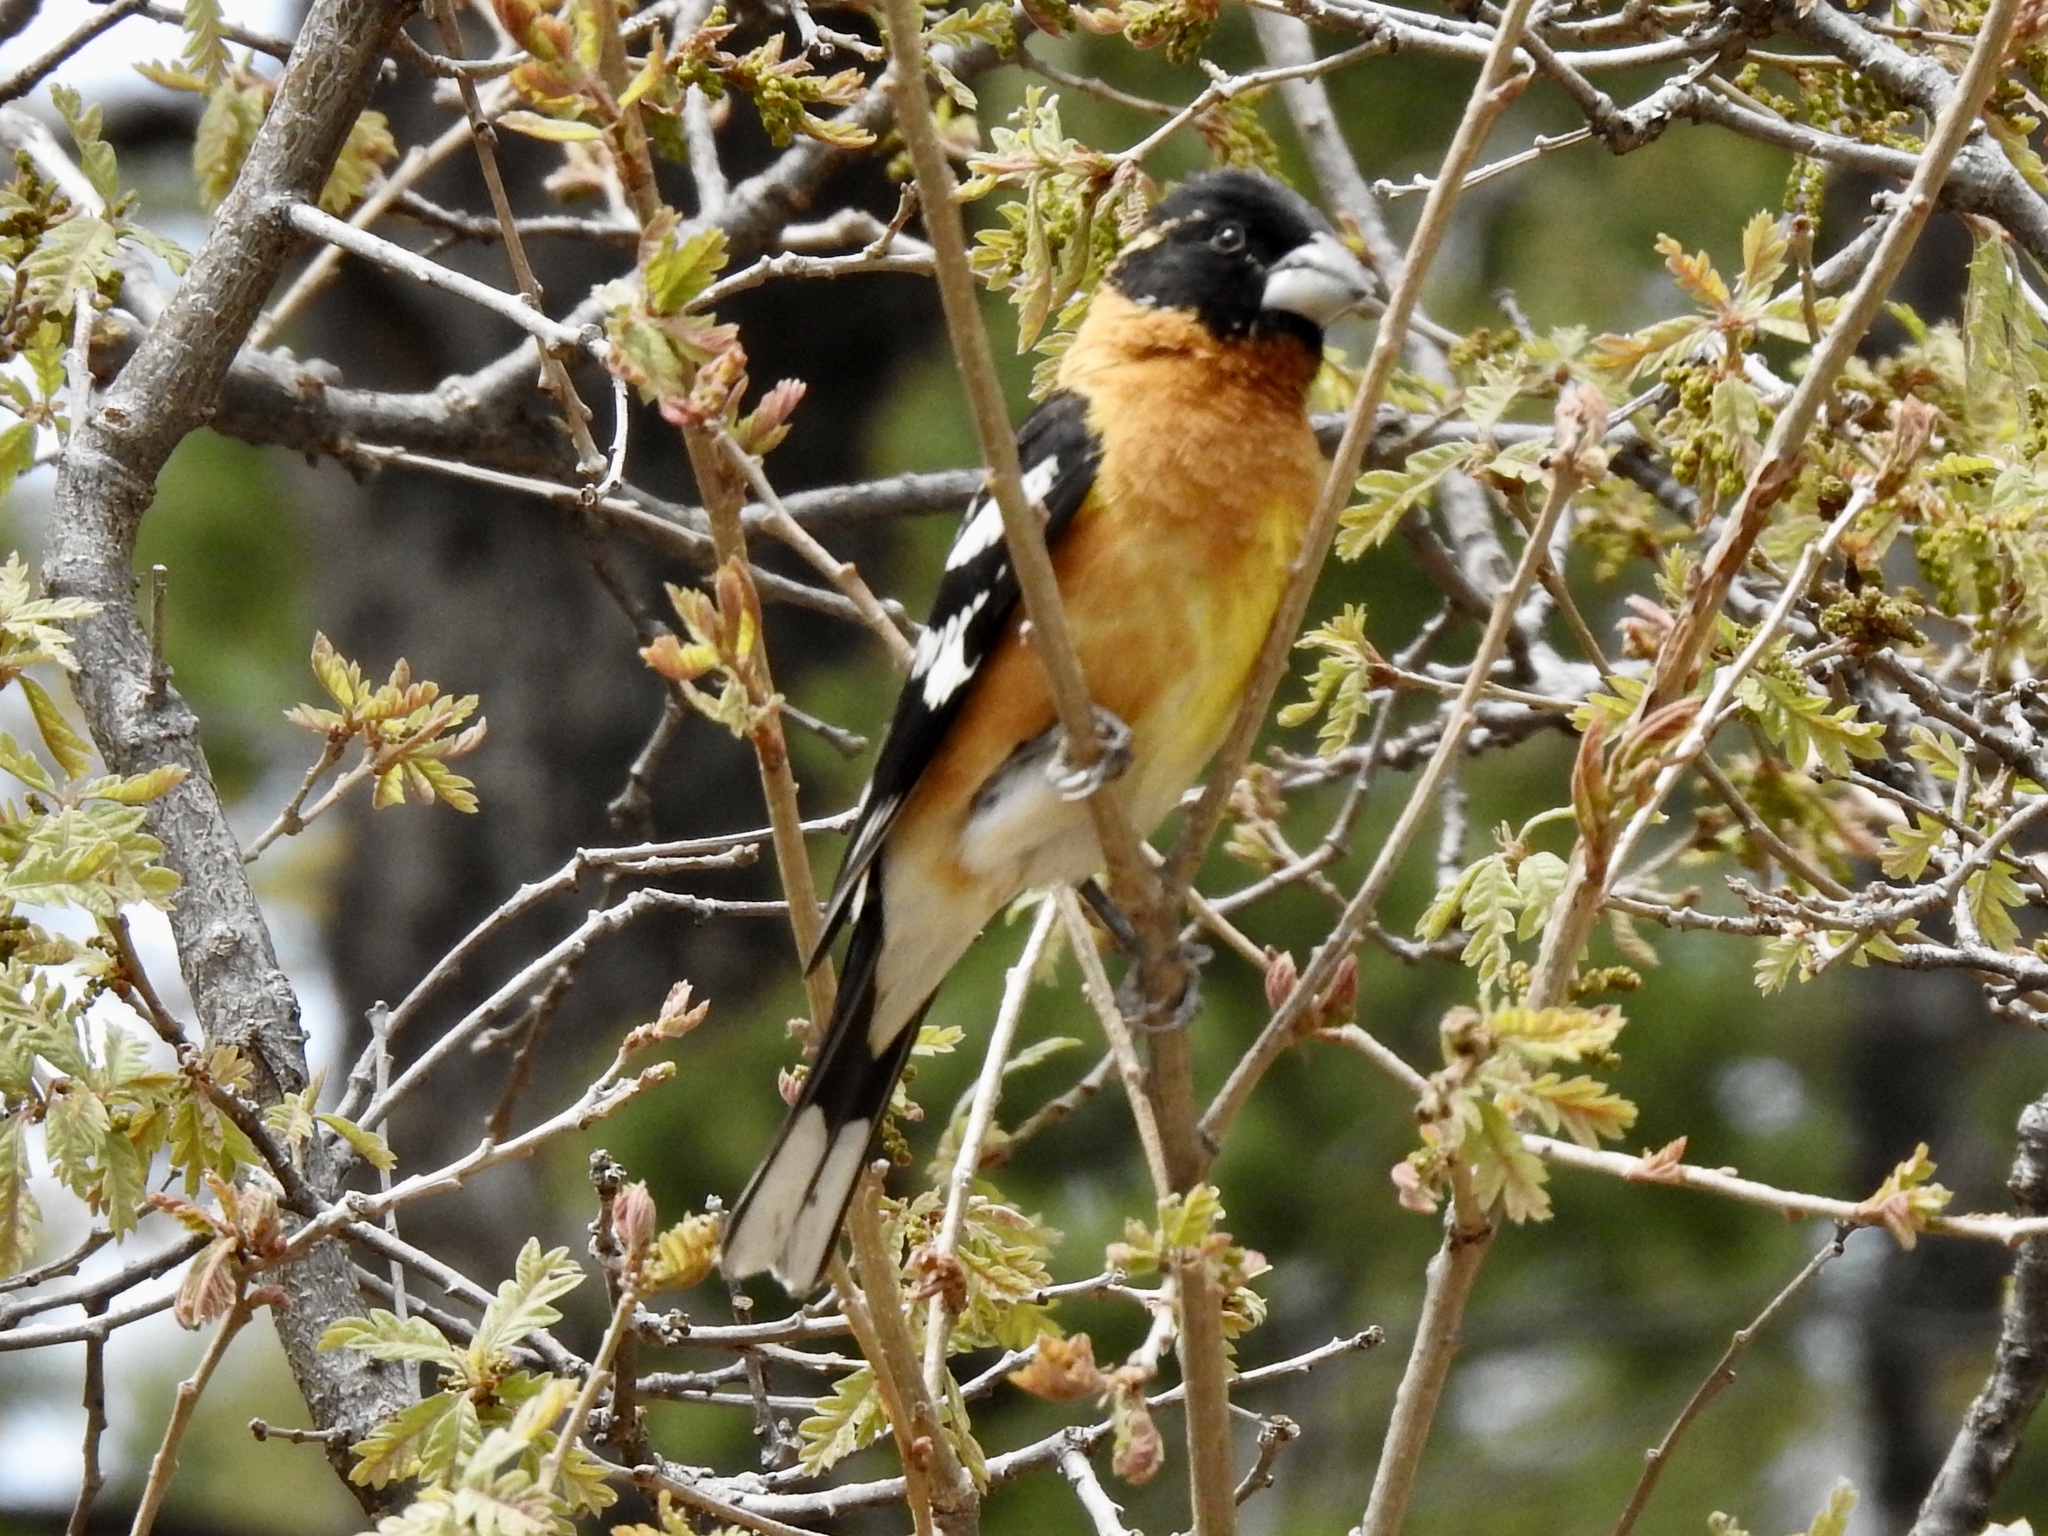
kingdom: Animalia
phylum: Chordata
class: Aves
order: Passeriformes
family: Cardinalidae
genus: Pheucticus
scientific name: Pheucticus melanocephalus
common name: Black-headed grosbeak
